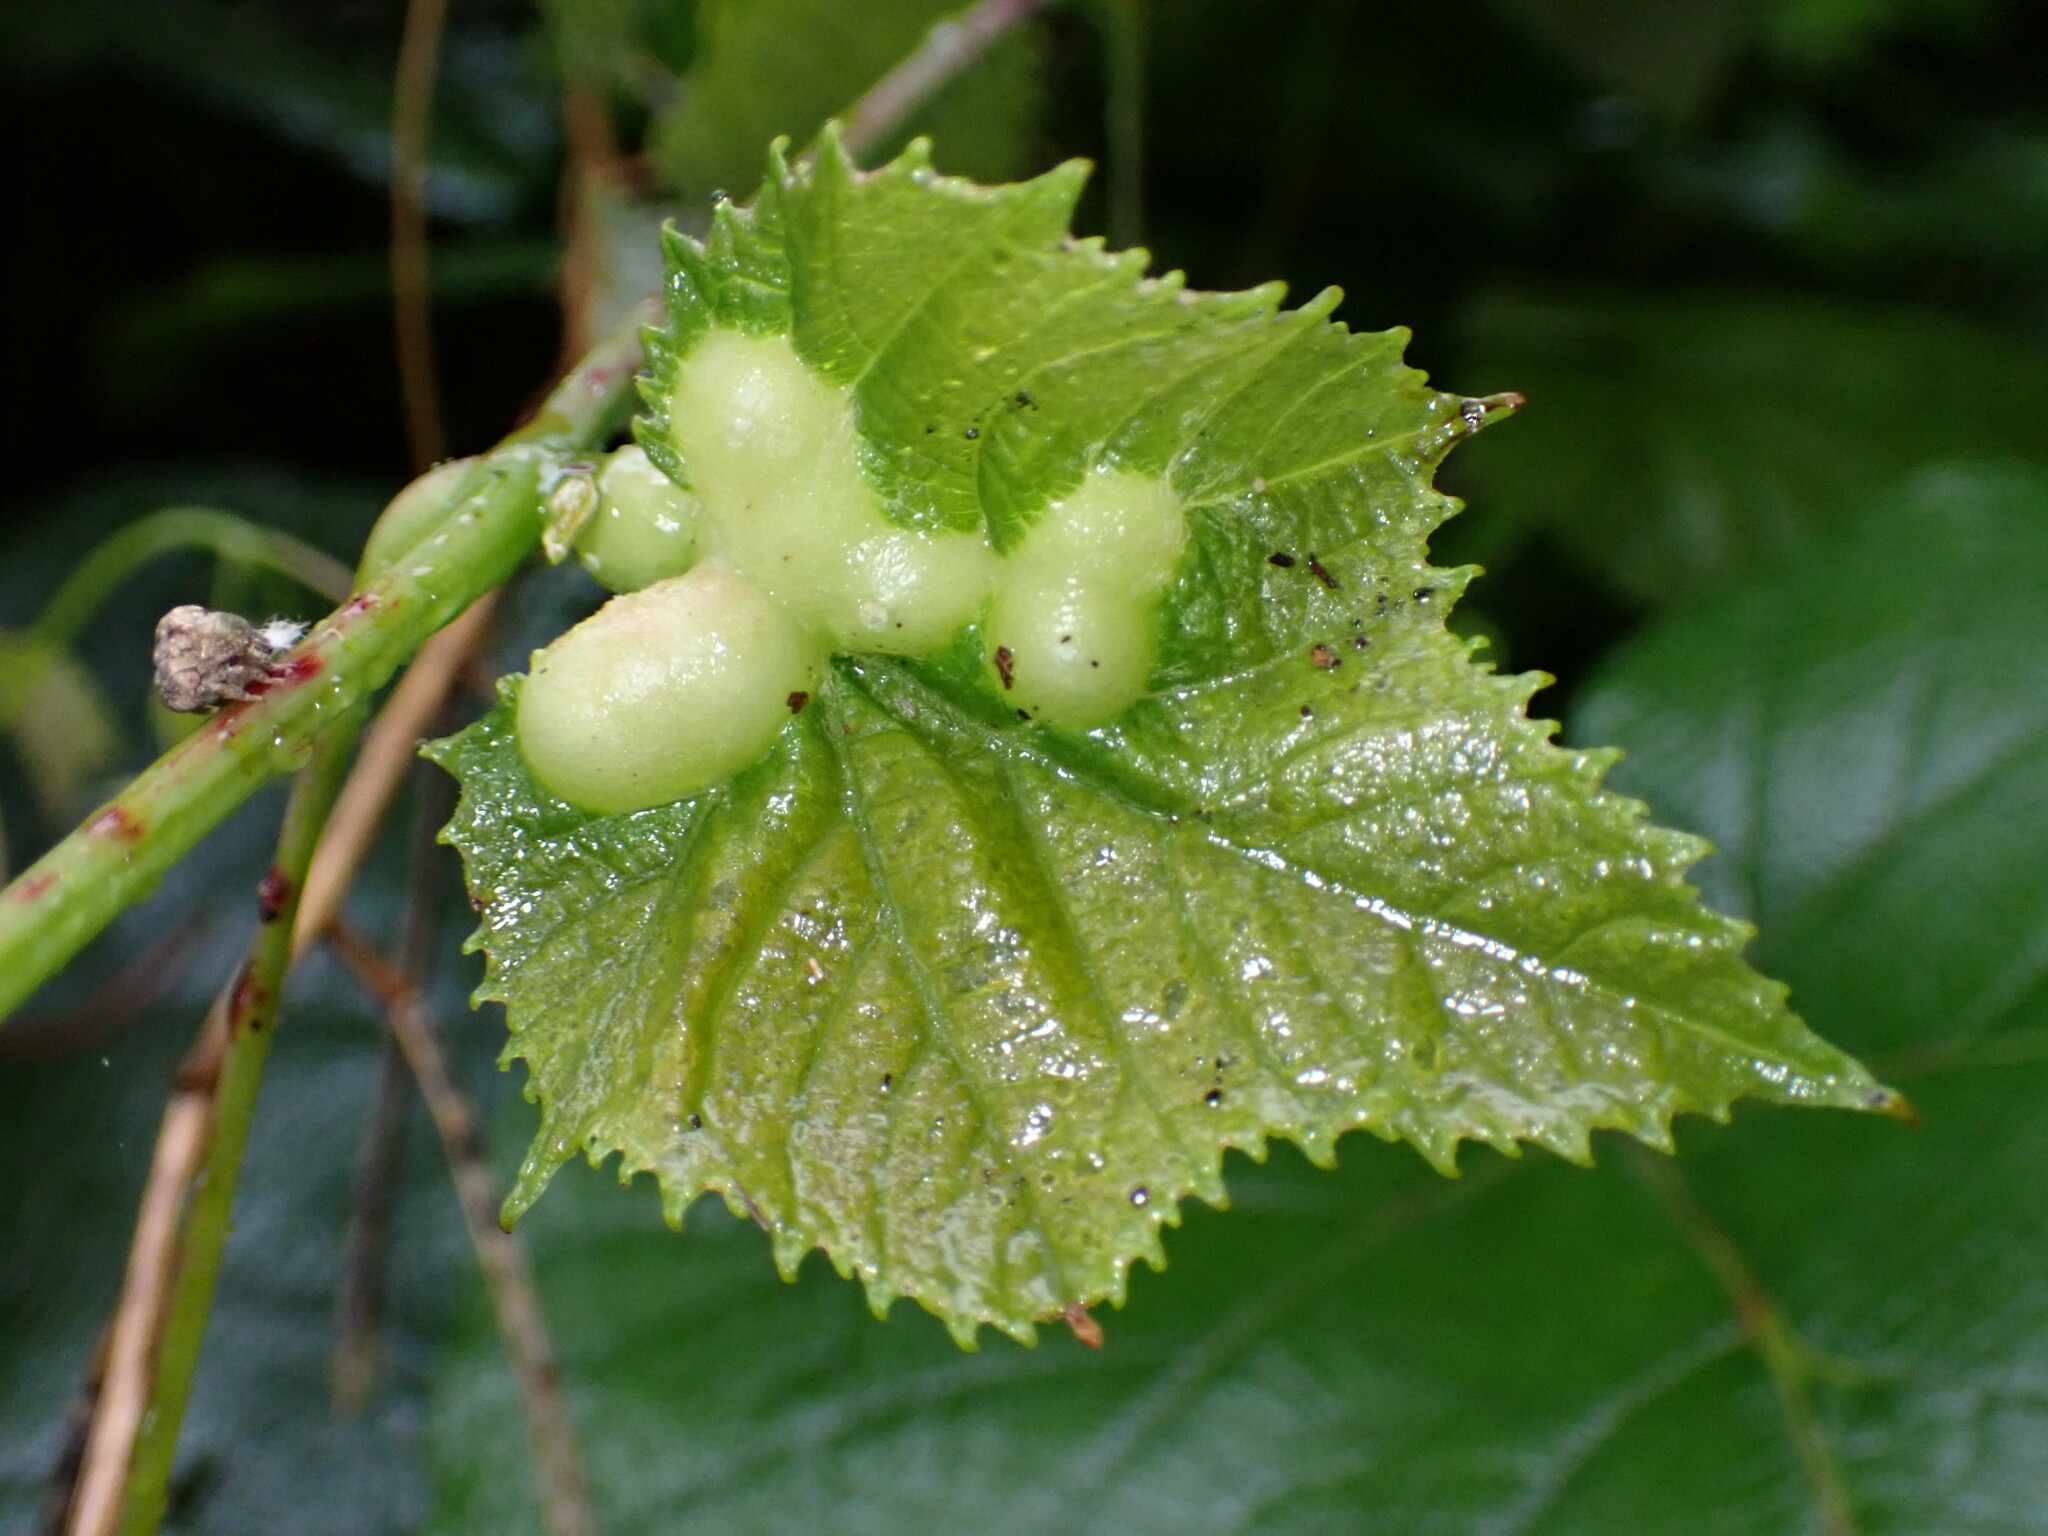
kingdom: Animalia
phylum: Arthropoda
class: Insecta
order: Diptera
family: Cecidomyiidae
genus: Vitisiella
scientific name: Vitisiella brevicauda
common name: Grape tumid gallmaker midge
